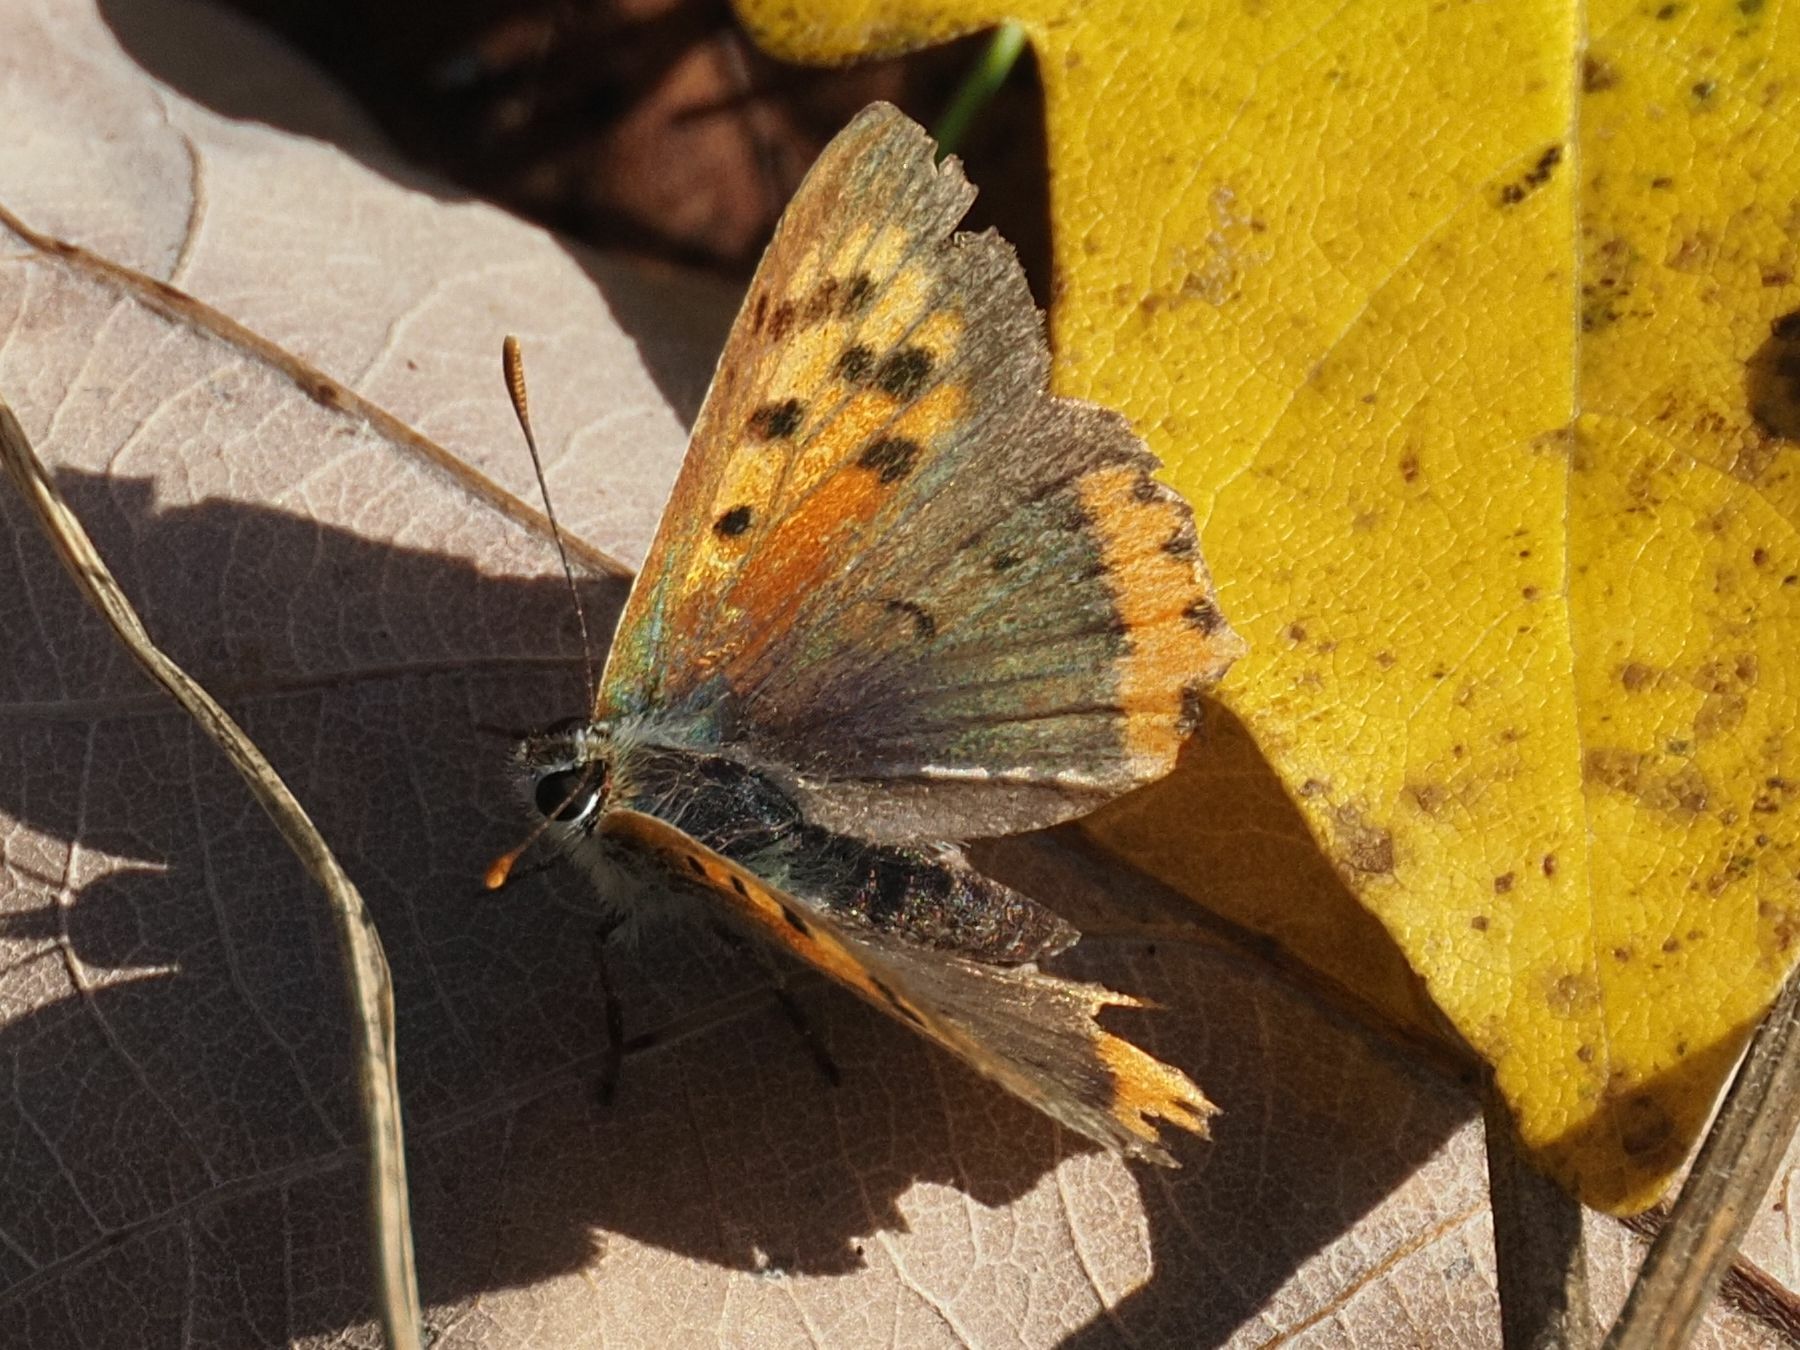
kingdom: Animalia
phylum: Arthropoda
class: Insecta
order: Lepidoptera
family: Lycaenidae
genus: Lycaena
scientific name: Lycaena phlaeas
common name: Small copper
